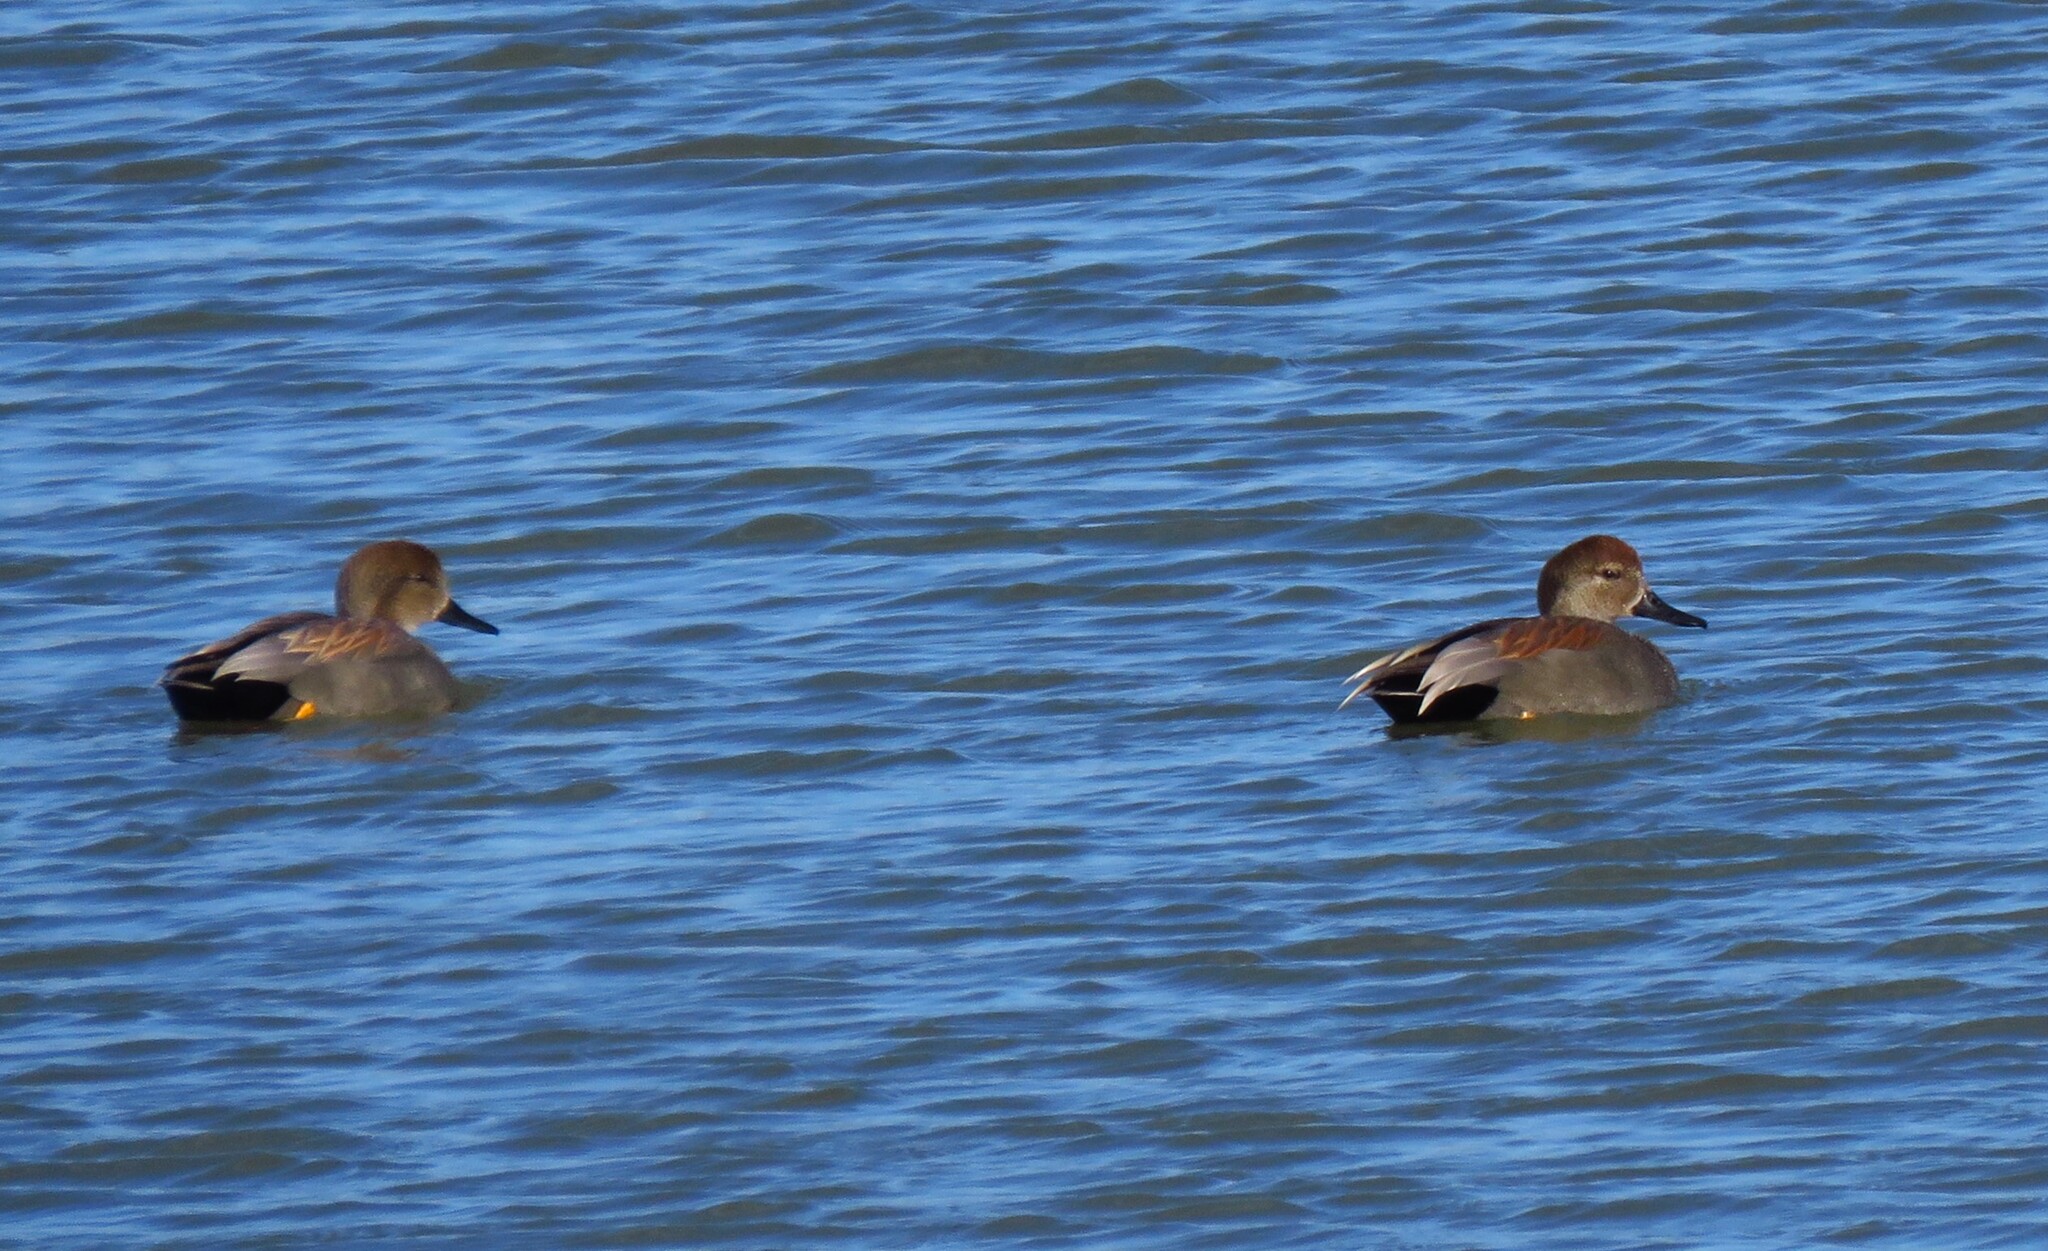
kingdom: Animalia
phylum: Chordata
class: Aves
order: Anseriformes
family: Anatidae
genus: Mareca
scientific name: Mareca strepera
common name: Gadwall
